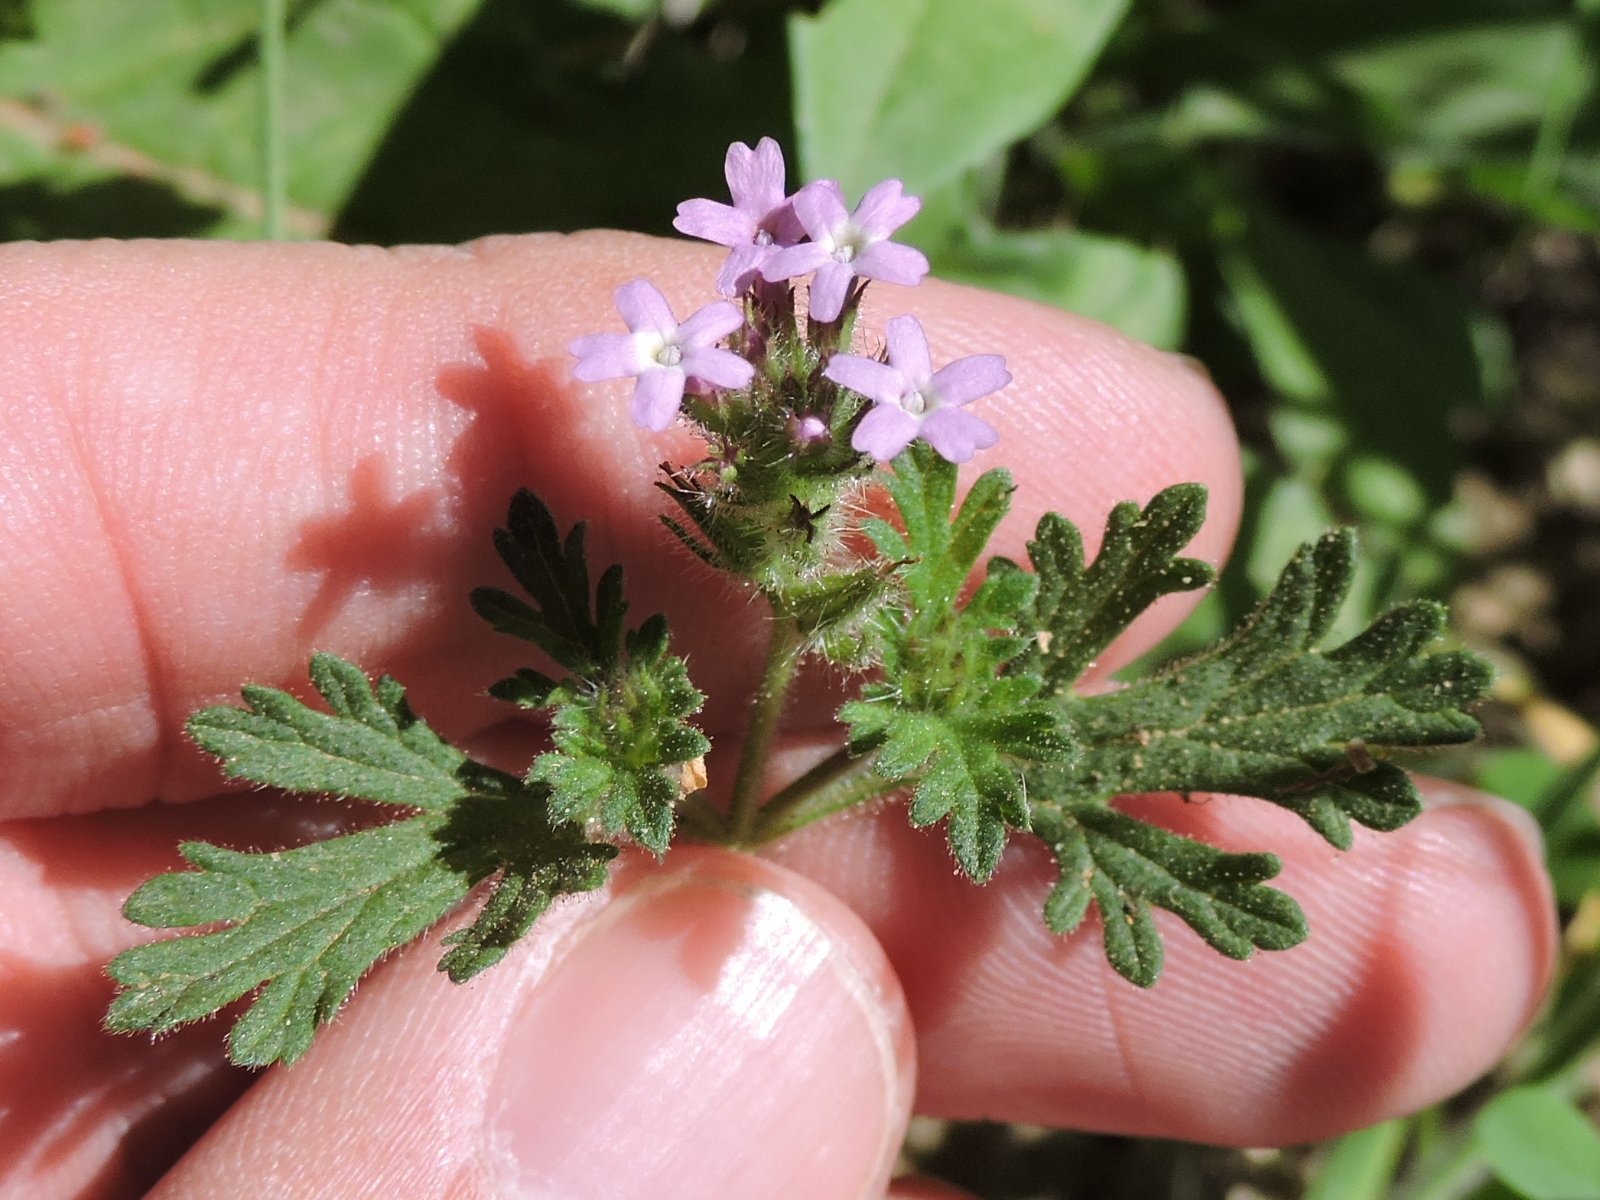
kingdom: Plantae
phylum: Tracheophyta
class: Magnoliopsida
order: Lamiales
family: Verbenaceae
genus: Verbena
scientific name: Verbena pumila
